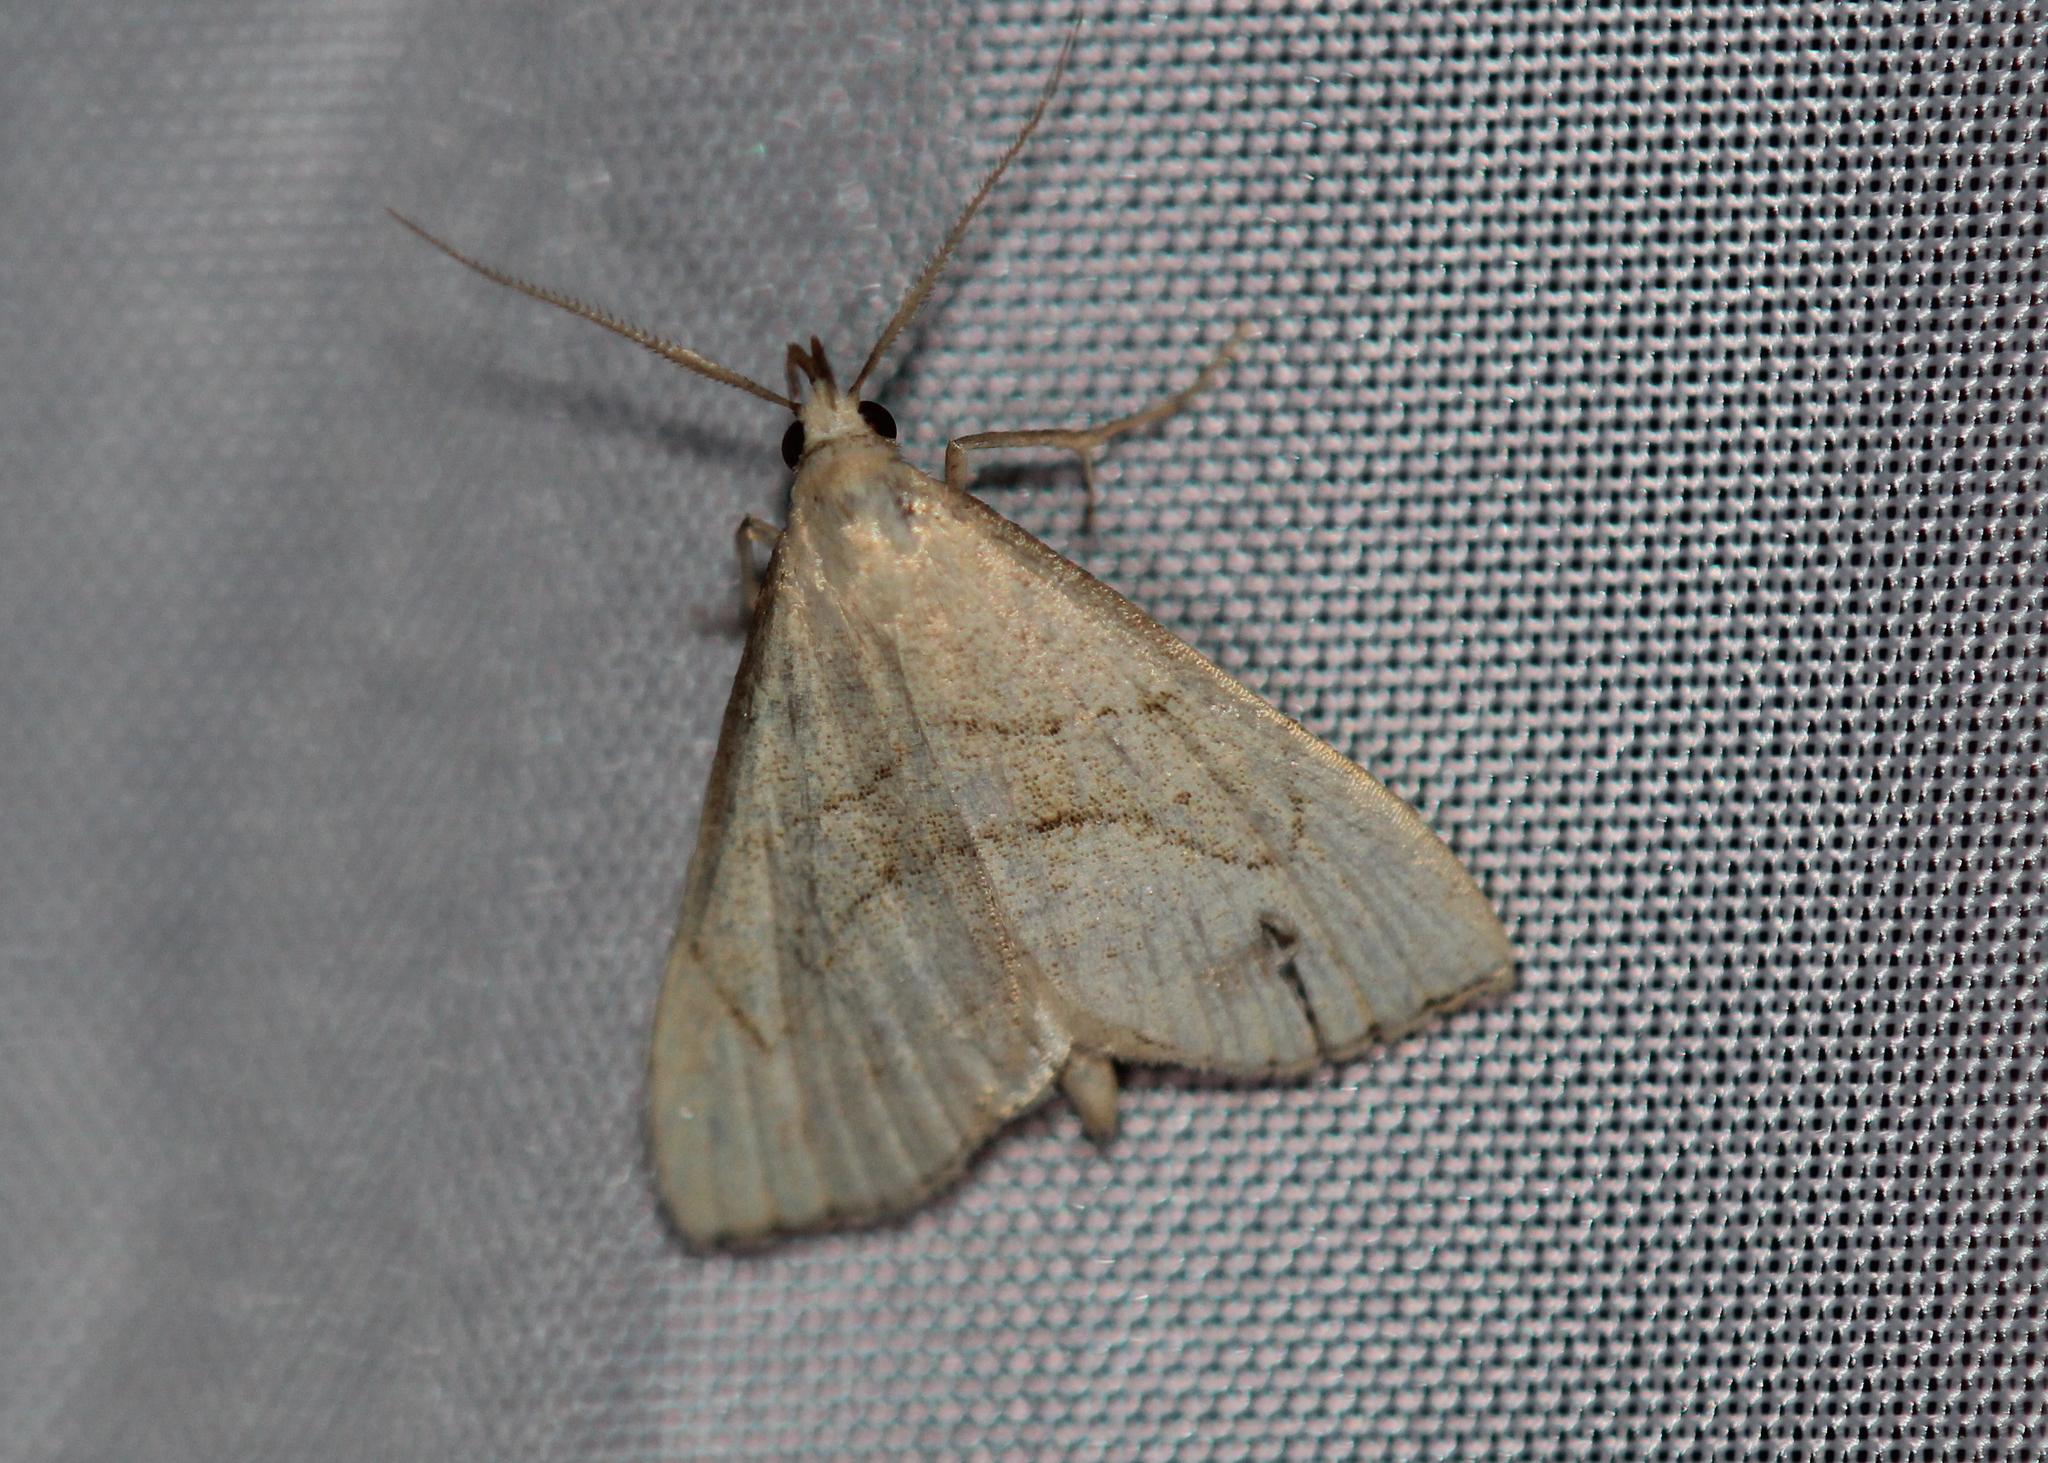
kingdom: Animalia
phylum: Arthropoda
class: Insecta
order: Lepidoptera
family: Erebidae
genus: Macrochilo
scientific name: Macrochilo litophora
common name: Brown-lined owlet
